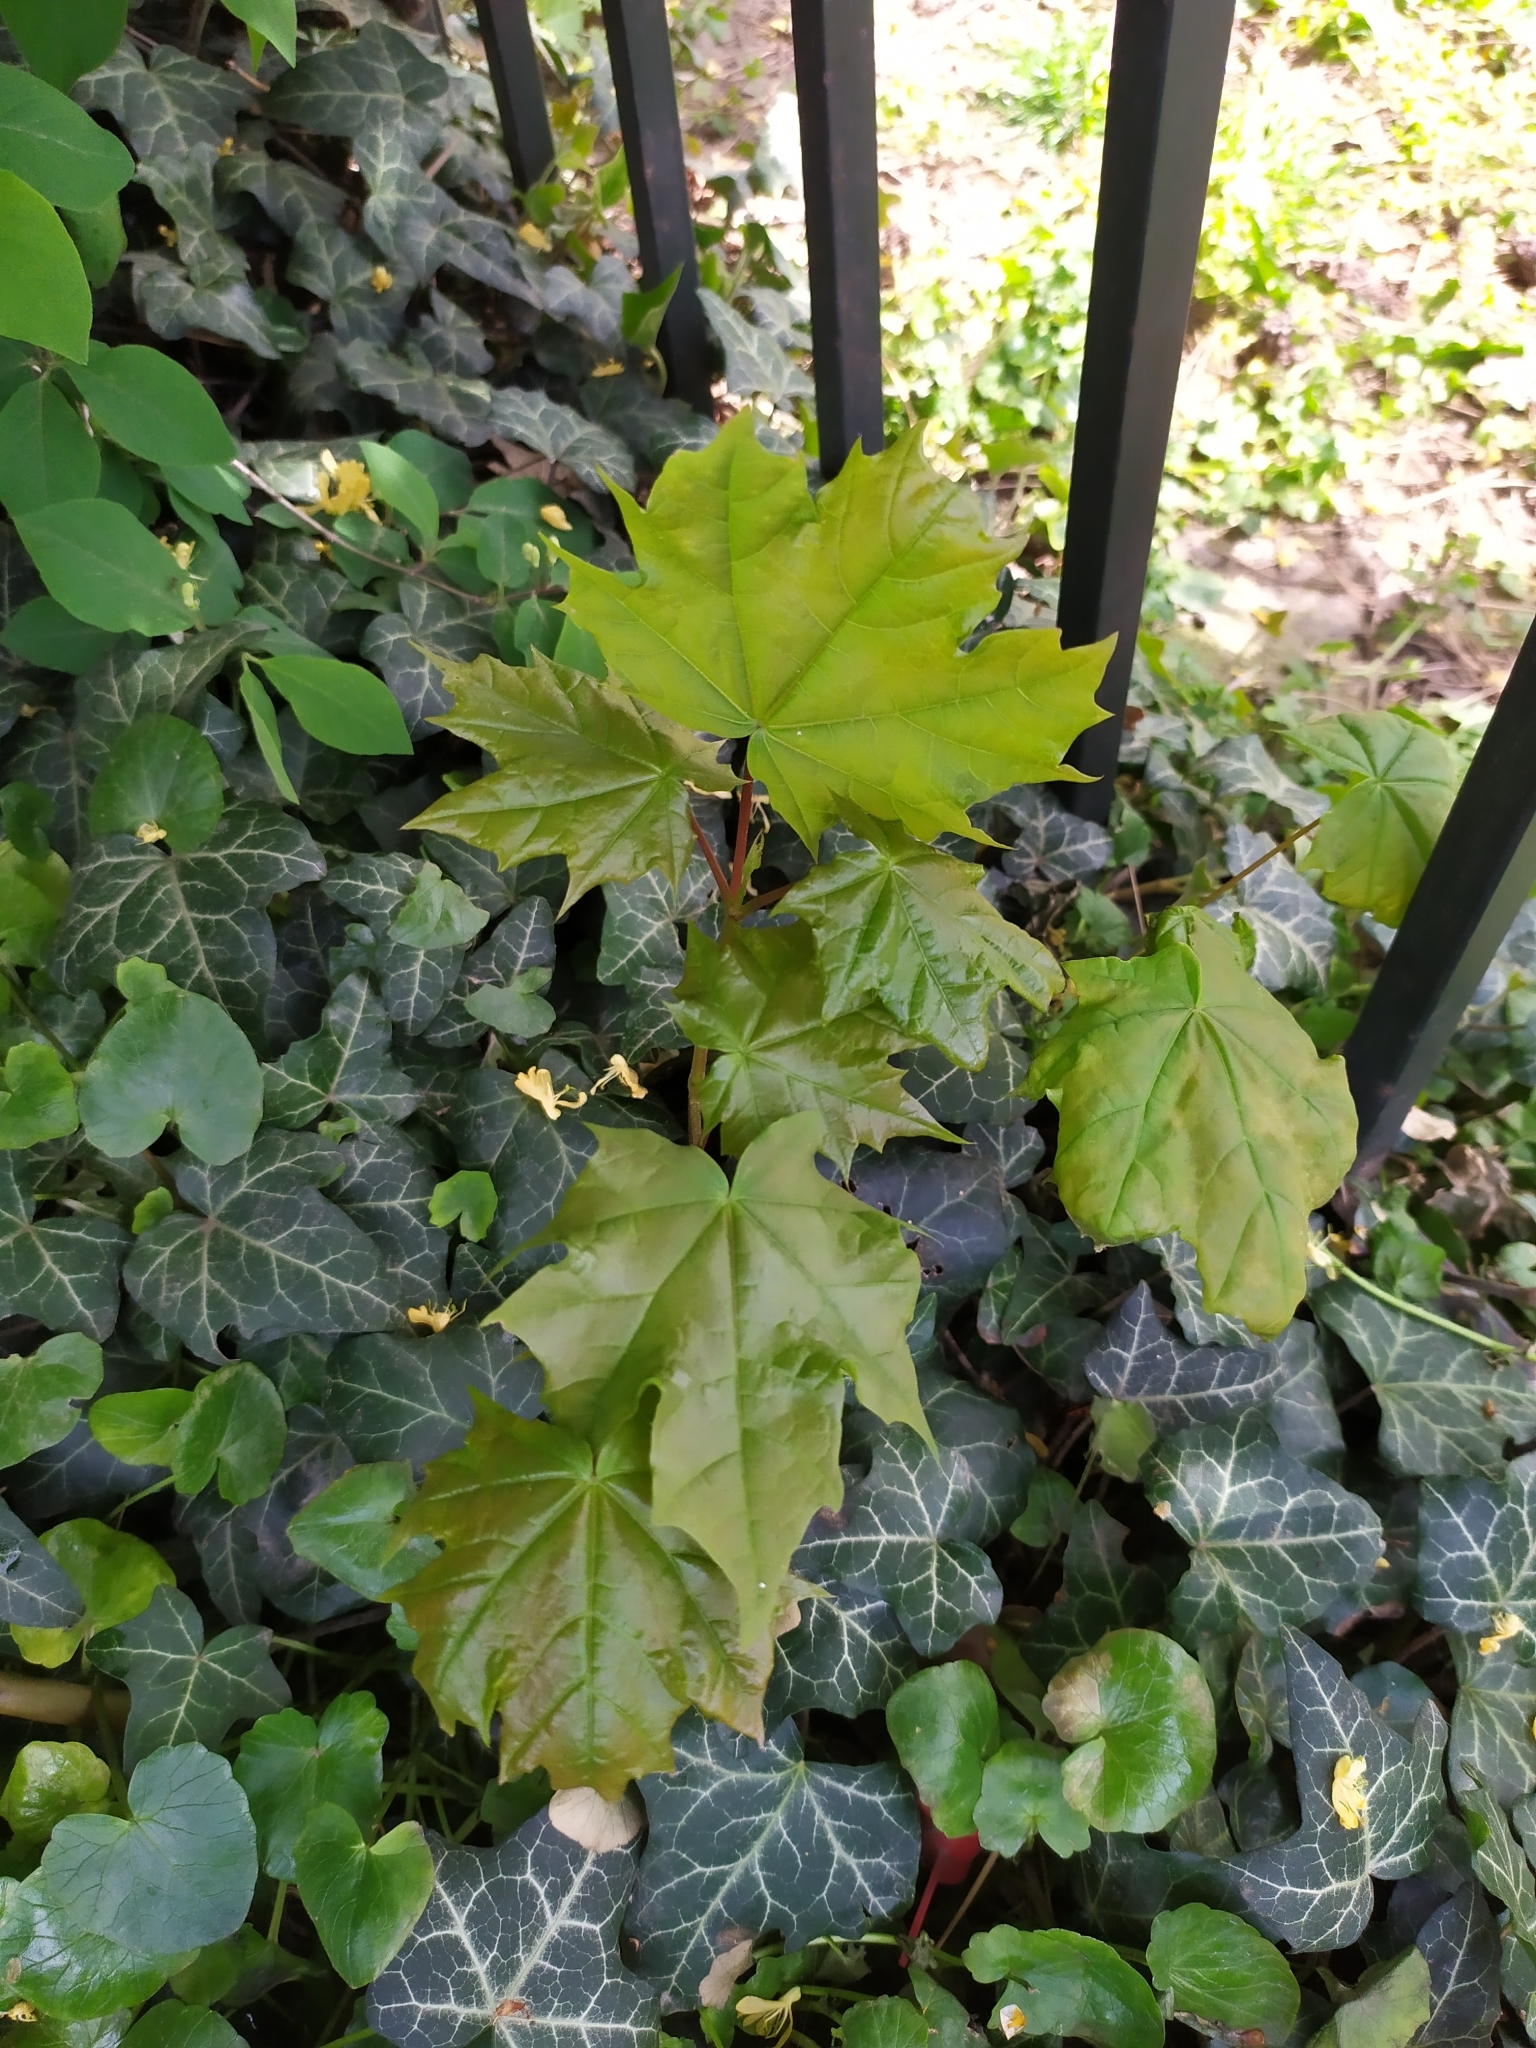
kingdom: Plantae
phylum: Tracheophyta
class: Magnoliopsida
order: Sapindales
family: Sapindaceae
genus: Acer
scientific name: Acer platanoides
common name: Norway maple
